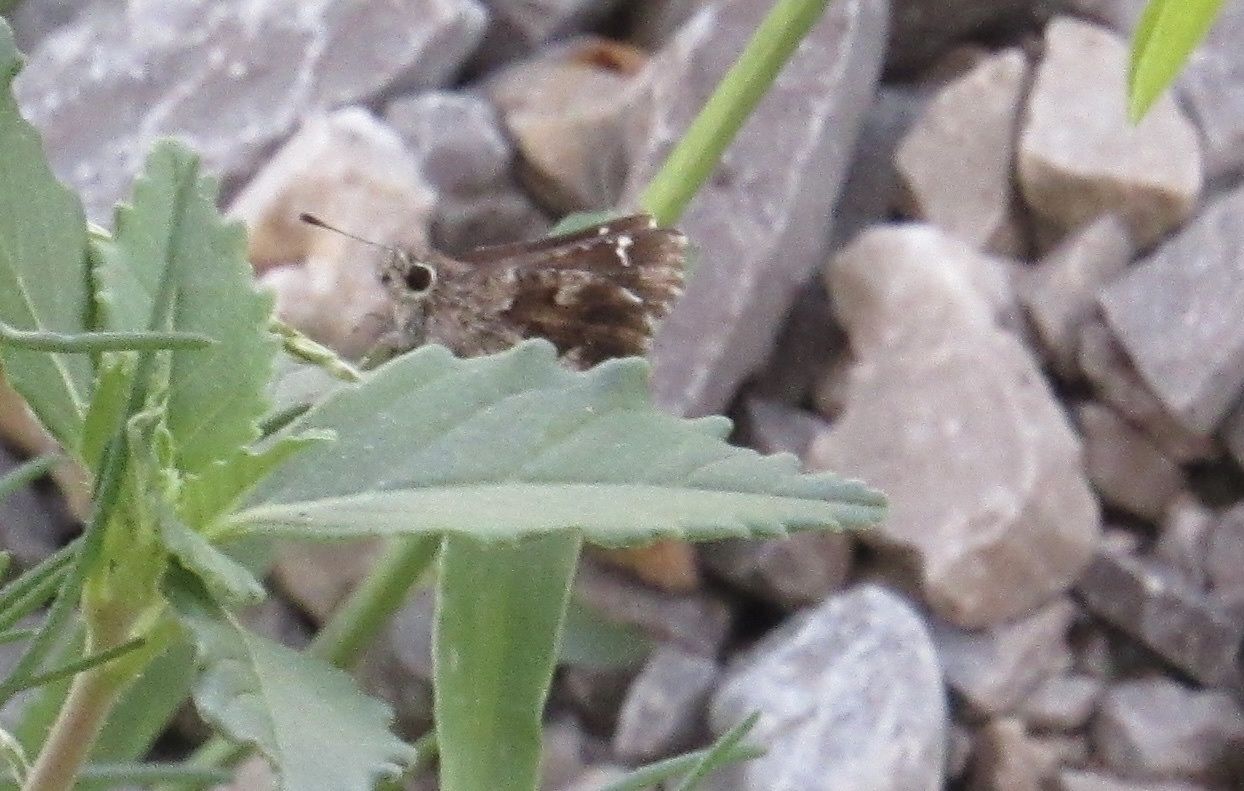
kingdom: Animalia
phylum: Arthropoda
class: Insecta
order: Lepidoptera
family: Hesperiidae
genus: Mastor
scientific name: Mastor nysa
